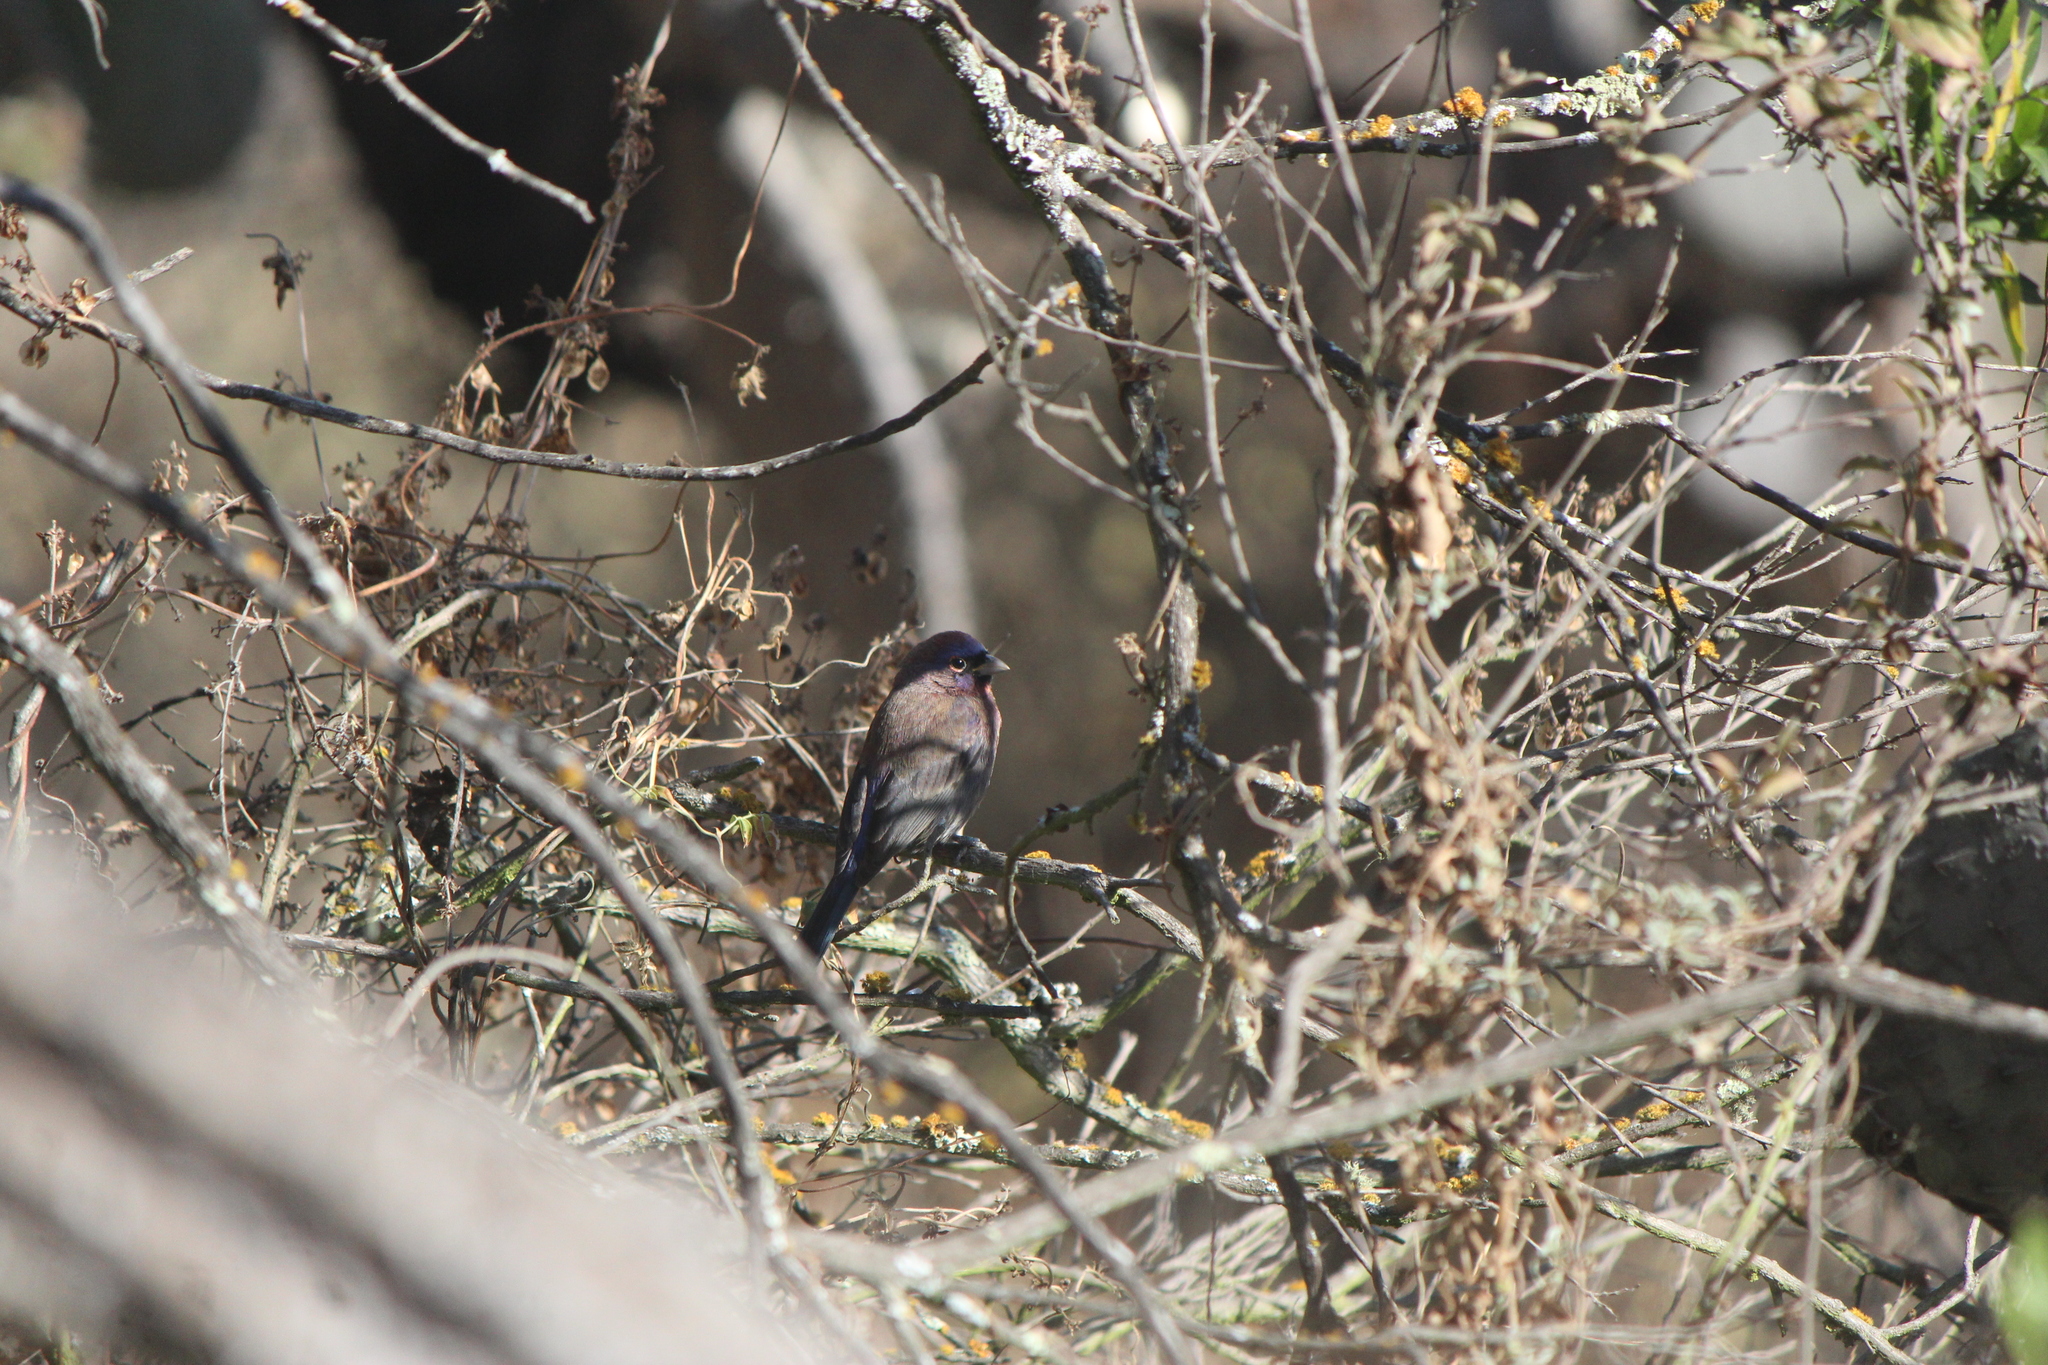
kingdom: Animalia
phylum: Chordata
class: Aves
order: Passeriformes
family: Cardinalidae
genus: Passerina
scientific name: Passerina versicolor
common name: Varied bunting
